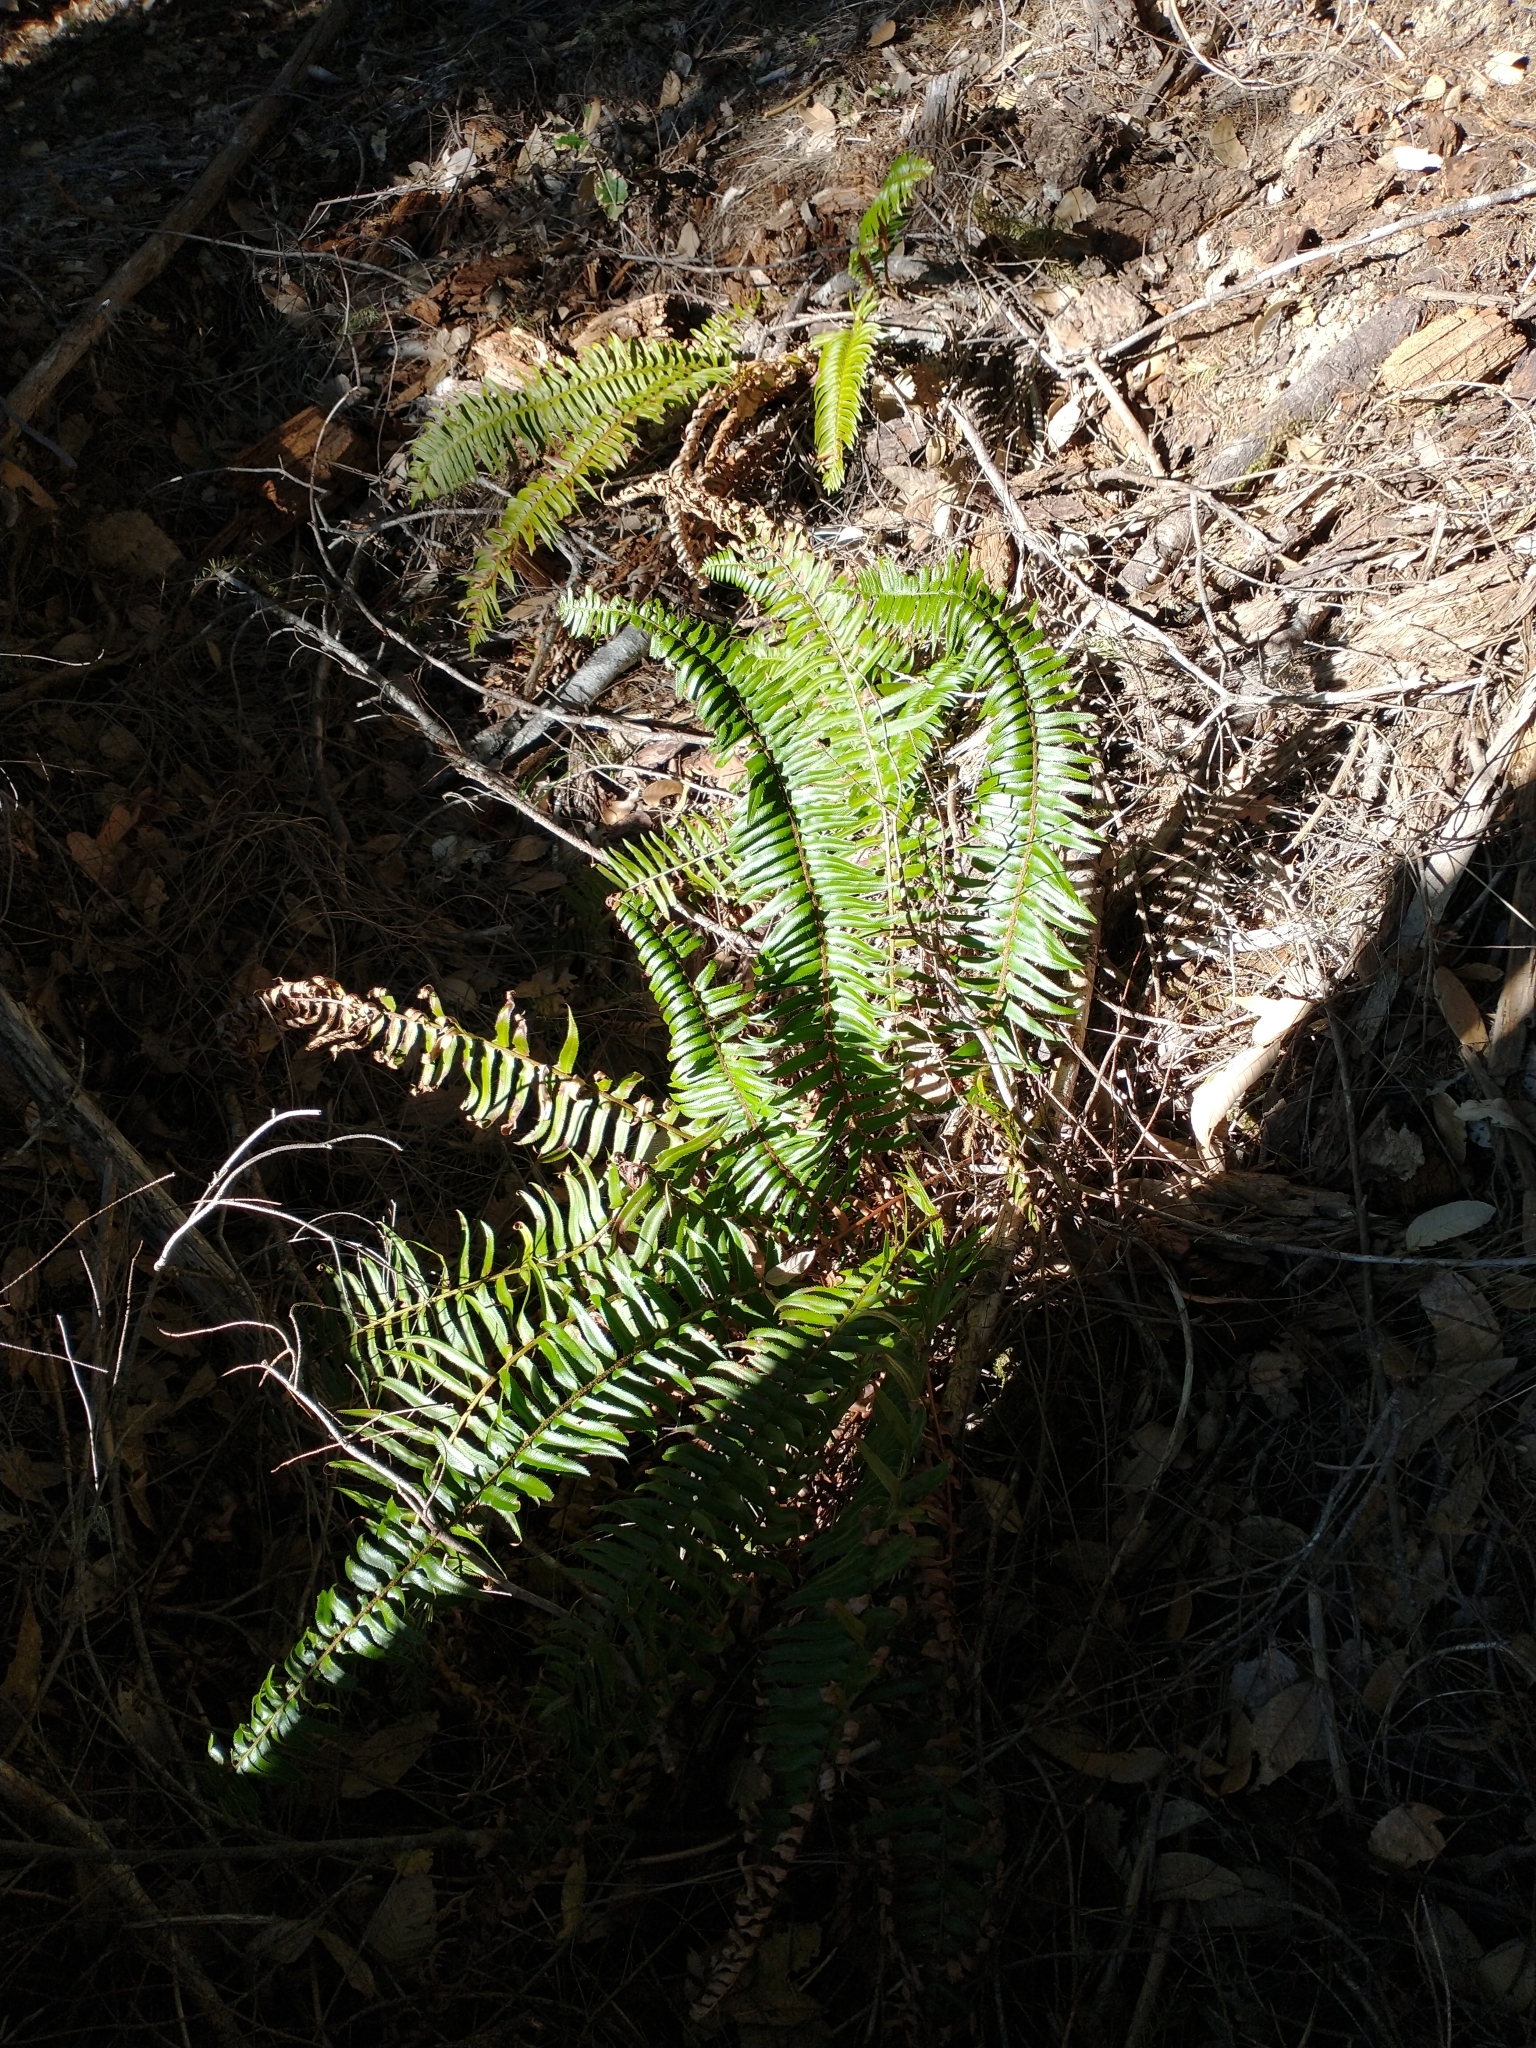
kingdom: Plantae
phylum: Tracheophyta
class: Polypodiopsida
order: Polypodiales
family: Dryopteridaceae
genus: Polystichum
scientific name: Polystichum munitum
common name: Western sword-fern
